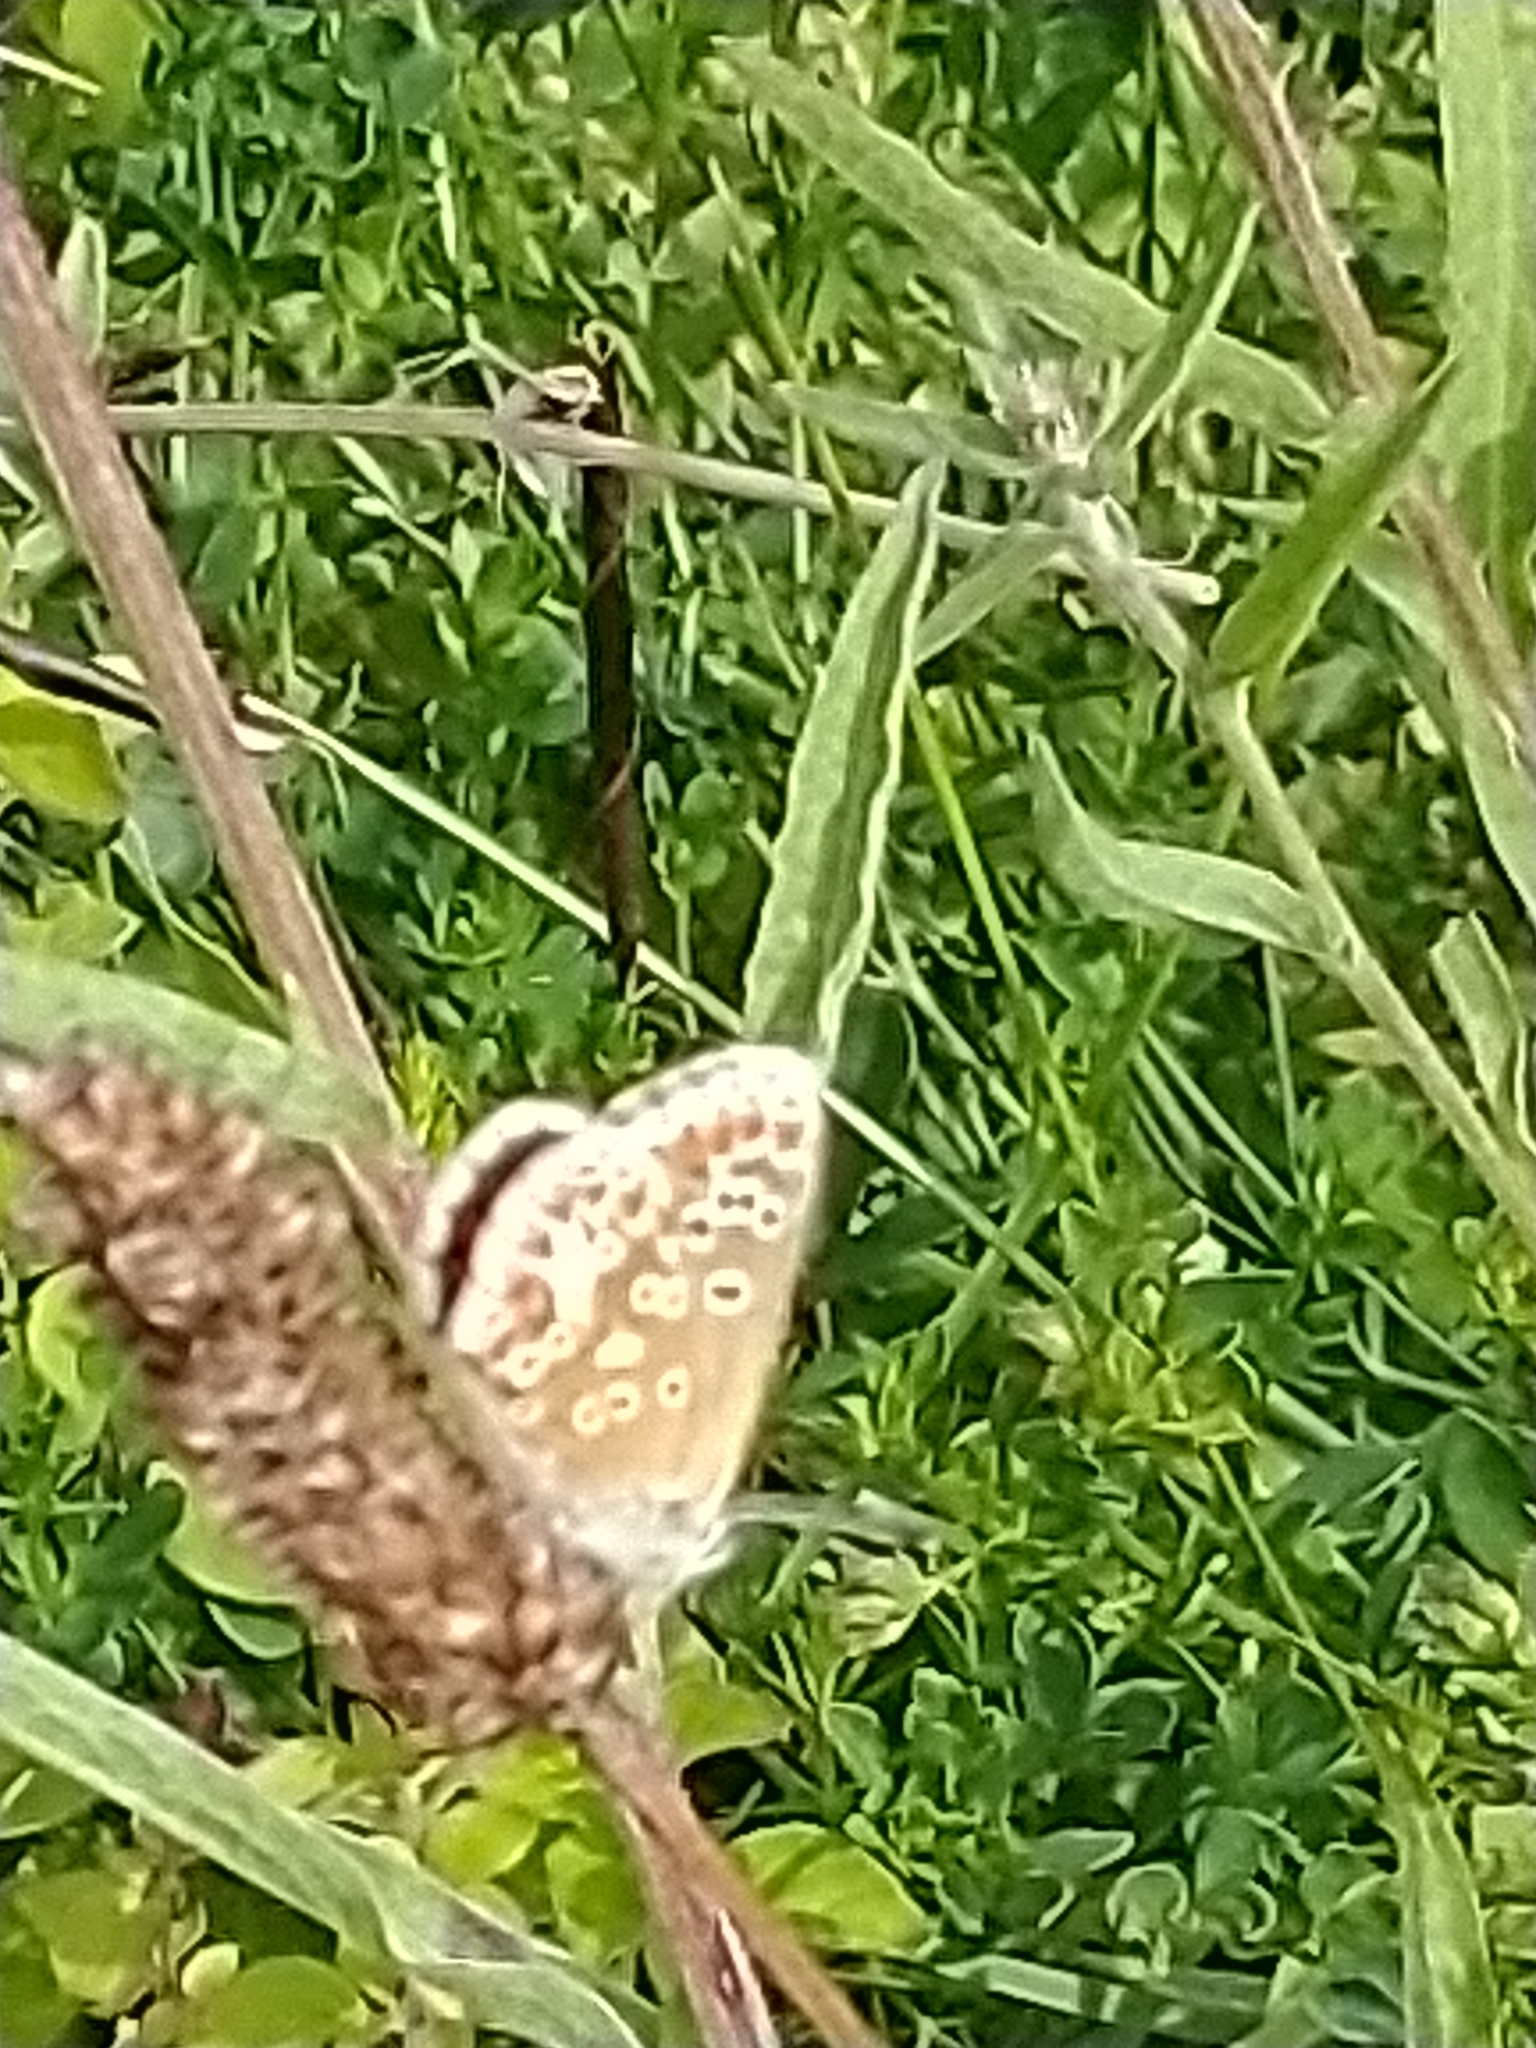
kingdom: Animalia
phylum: Arthropoda
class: Insecta
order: Lepidoptera
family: Lycaenidae
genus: Aricia
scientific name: Aricia agestis
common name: Brown argus
